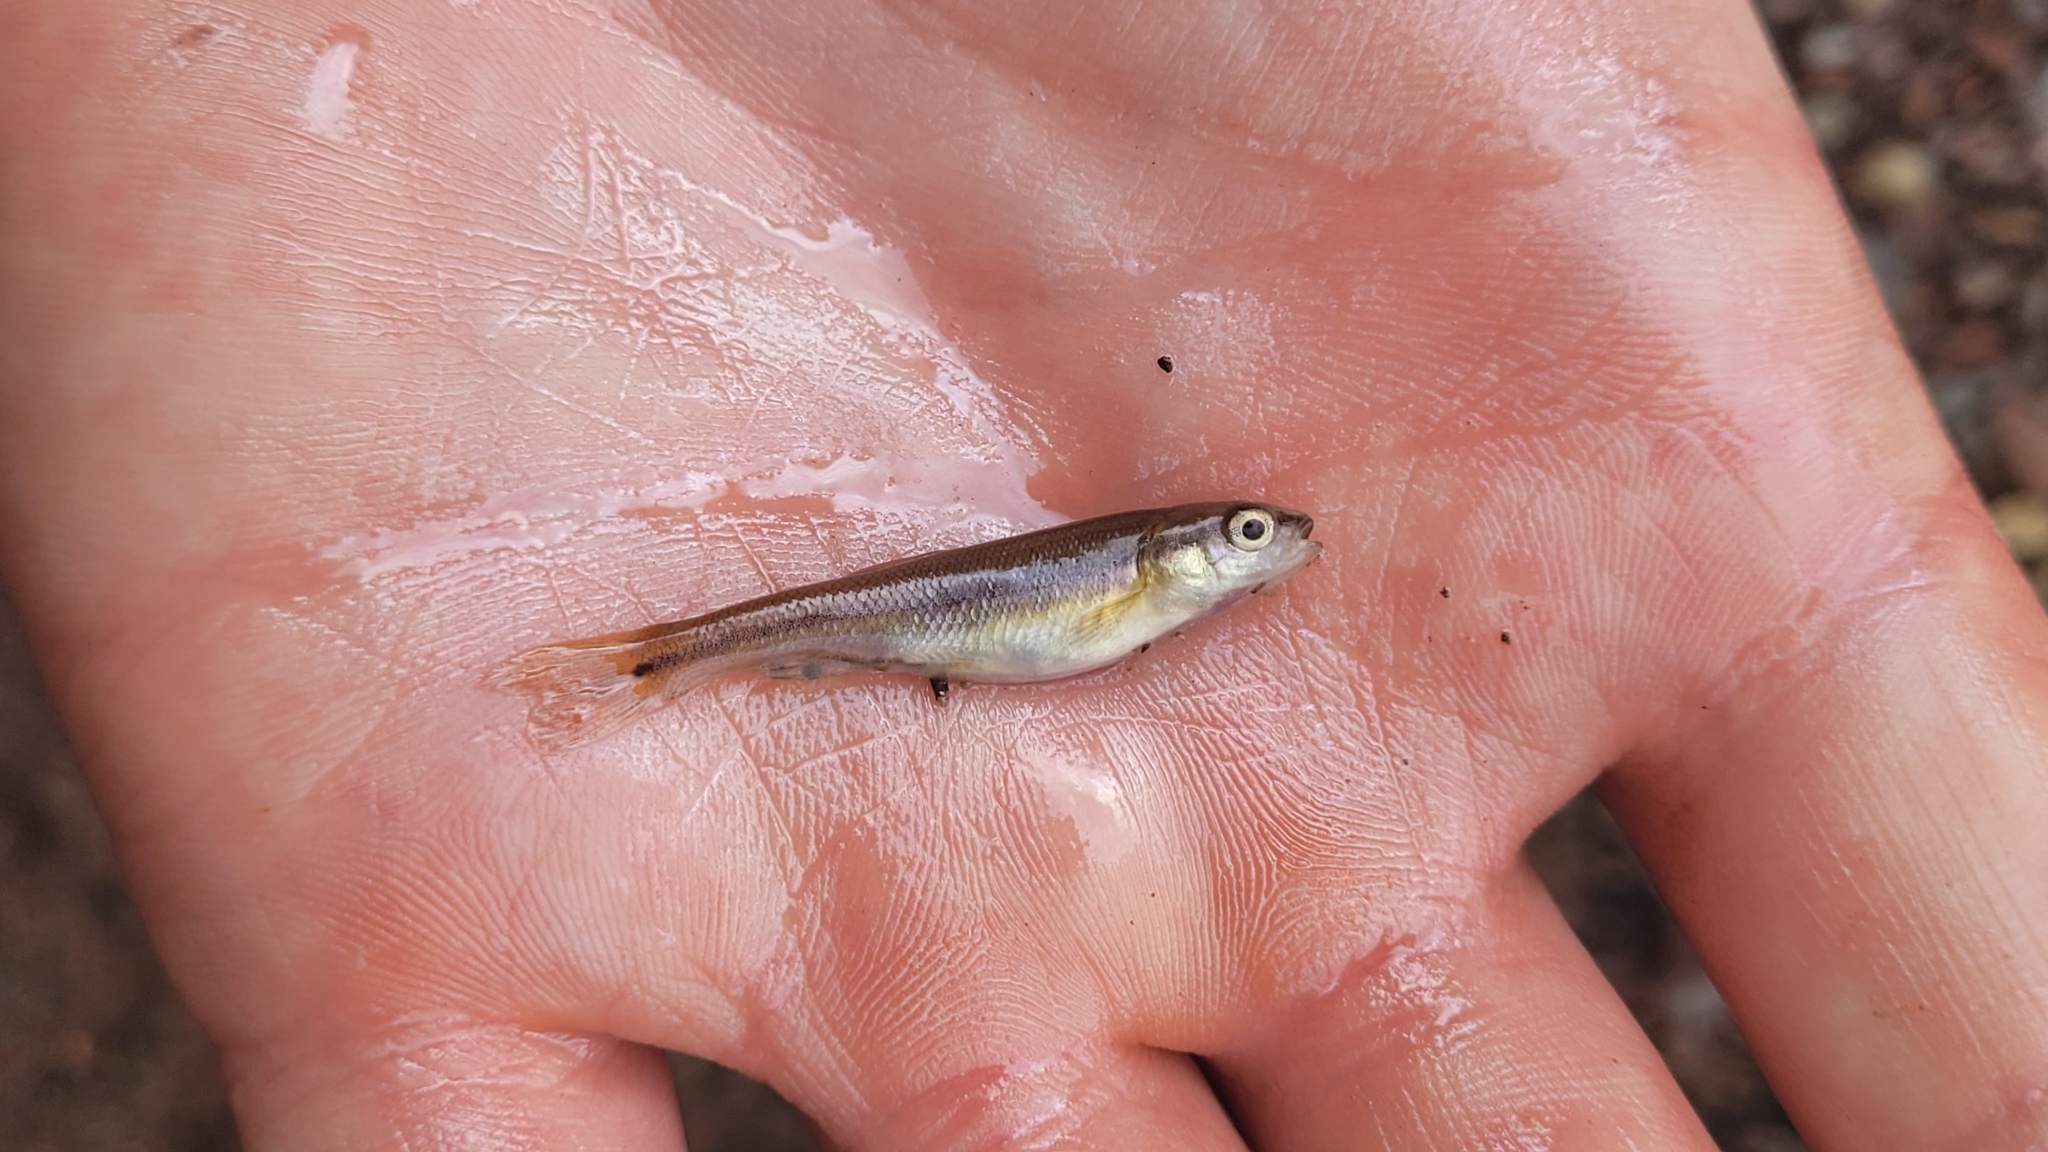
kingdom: Animalia
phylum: Chordata
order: Cypriniformes
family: Cyprinidae
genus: Semotilus
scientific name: Semotilus atromaculatus
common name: Creek chub
